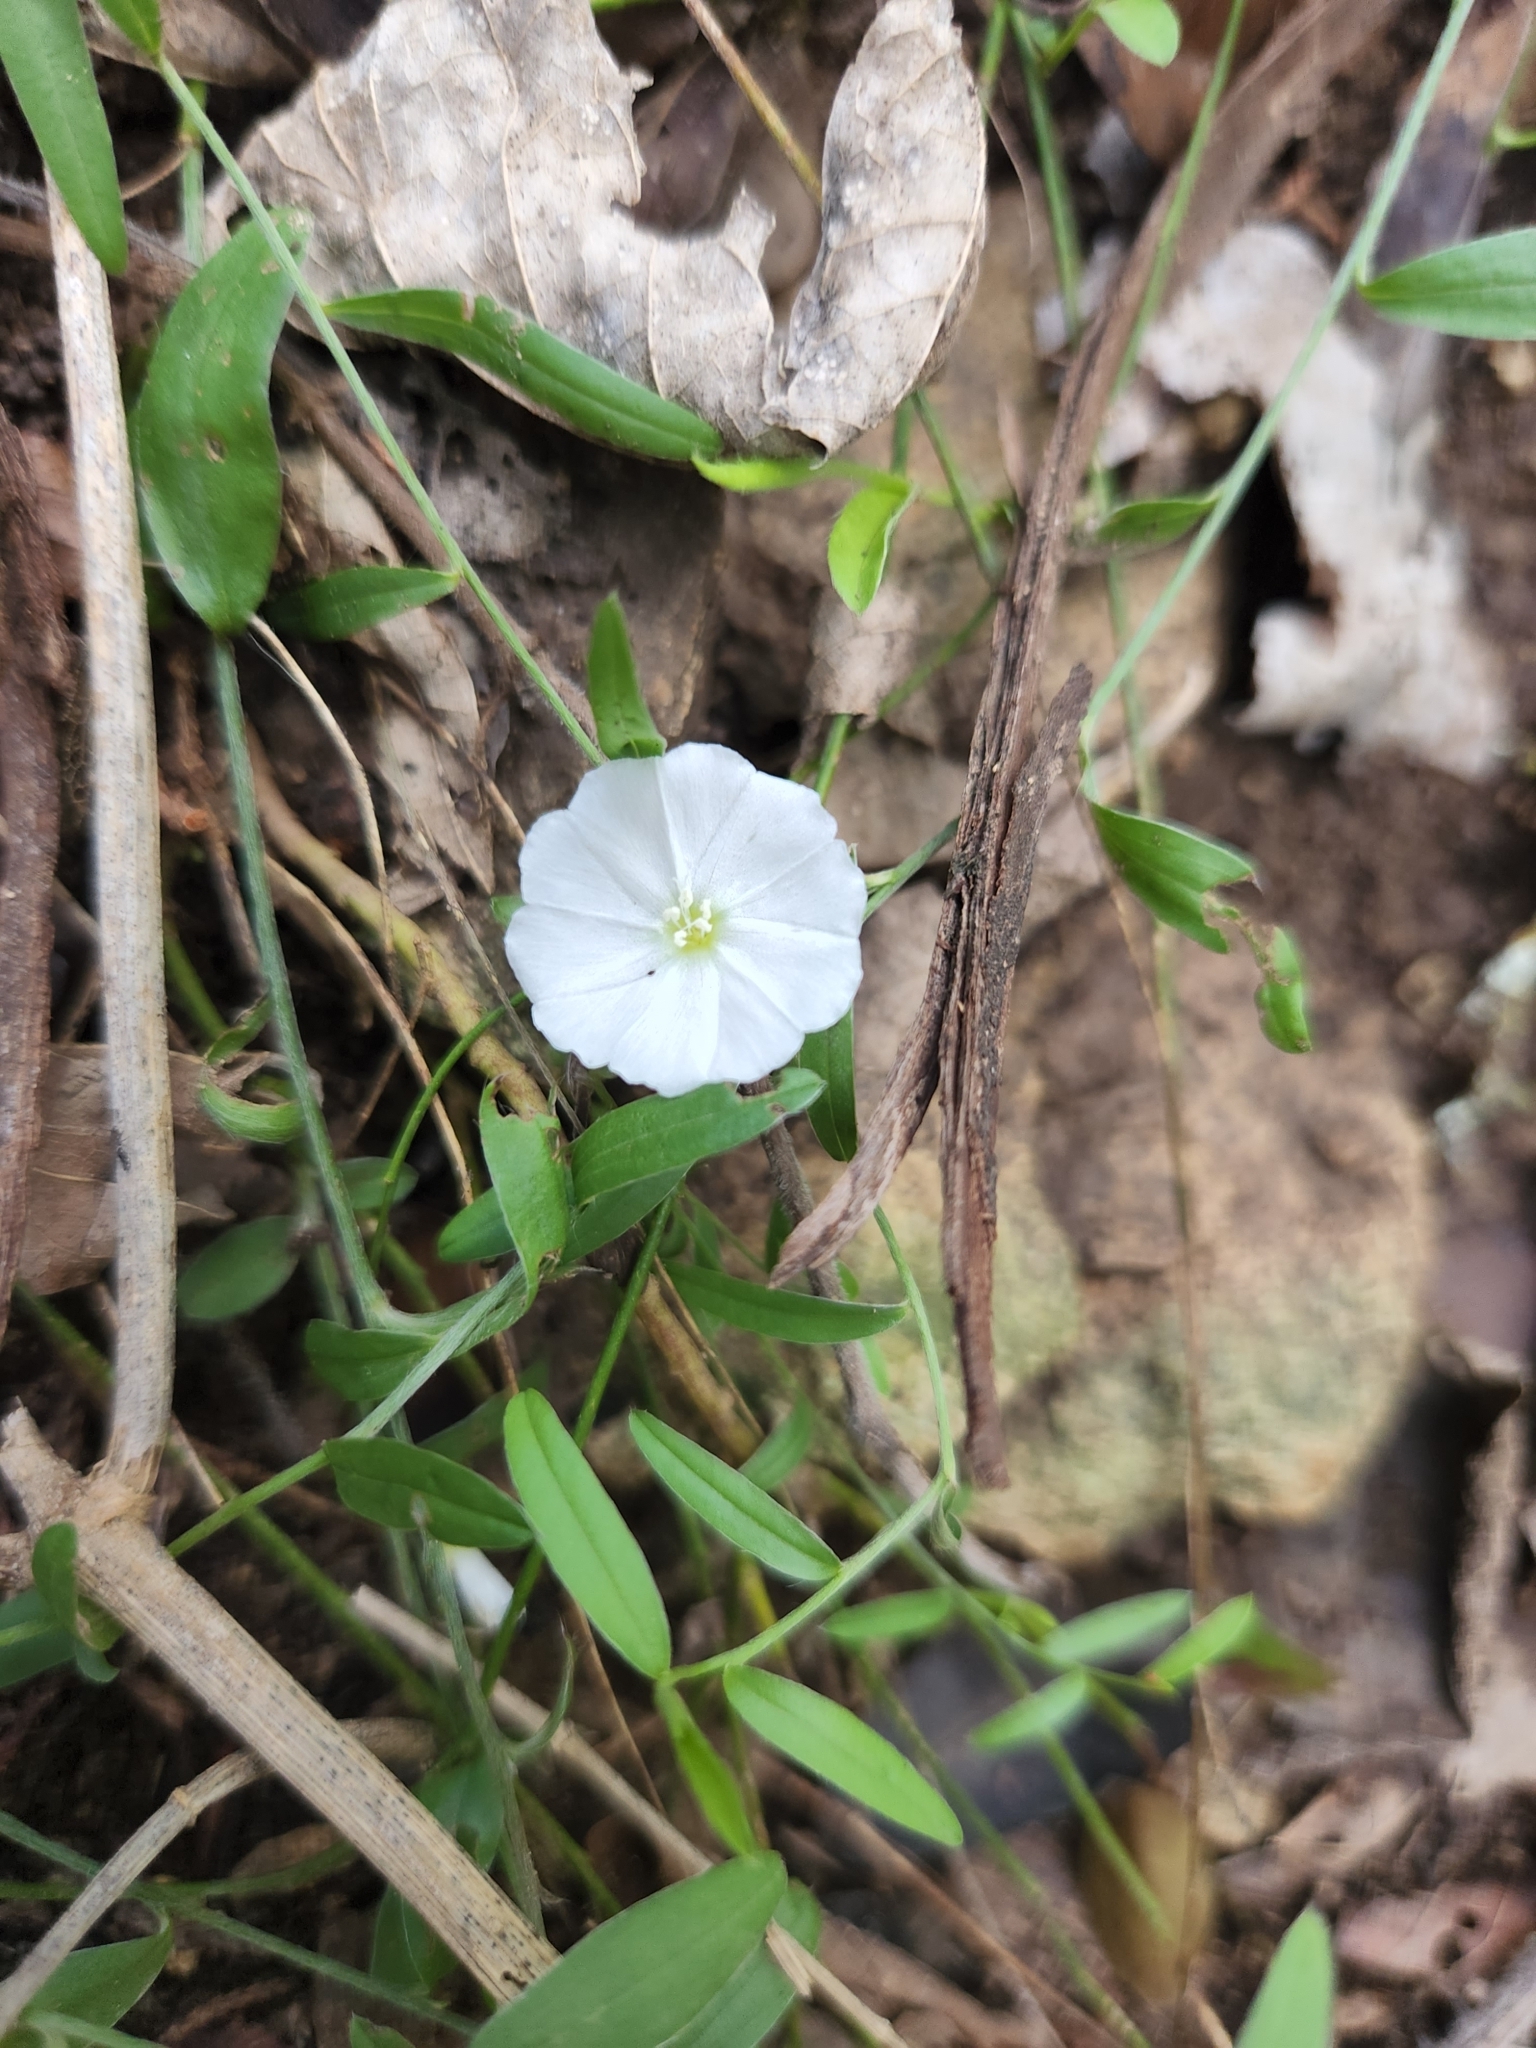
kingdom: Plantae
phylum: Tracheophyta
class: Magnoliopsida
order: Solanales
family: Convolvulaceae
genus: Evolvulus
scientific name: Evolvulus sericeus
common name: Blue dots
